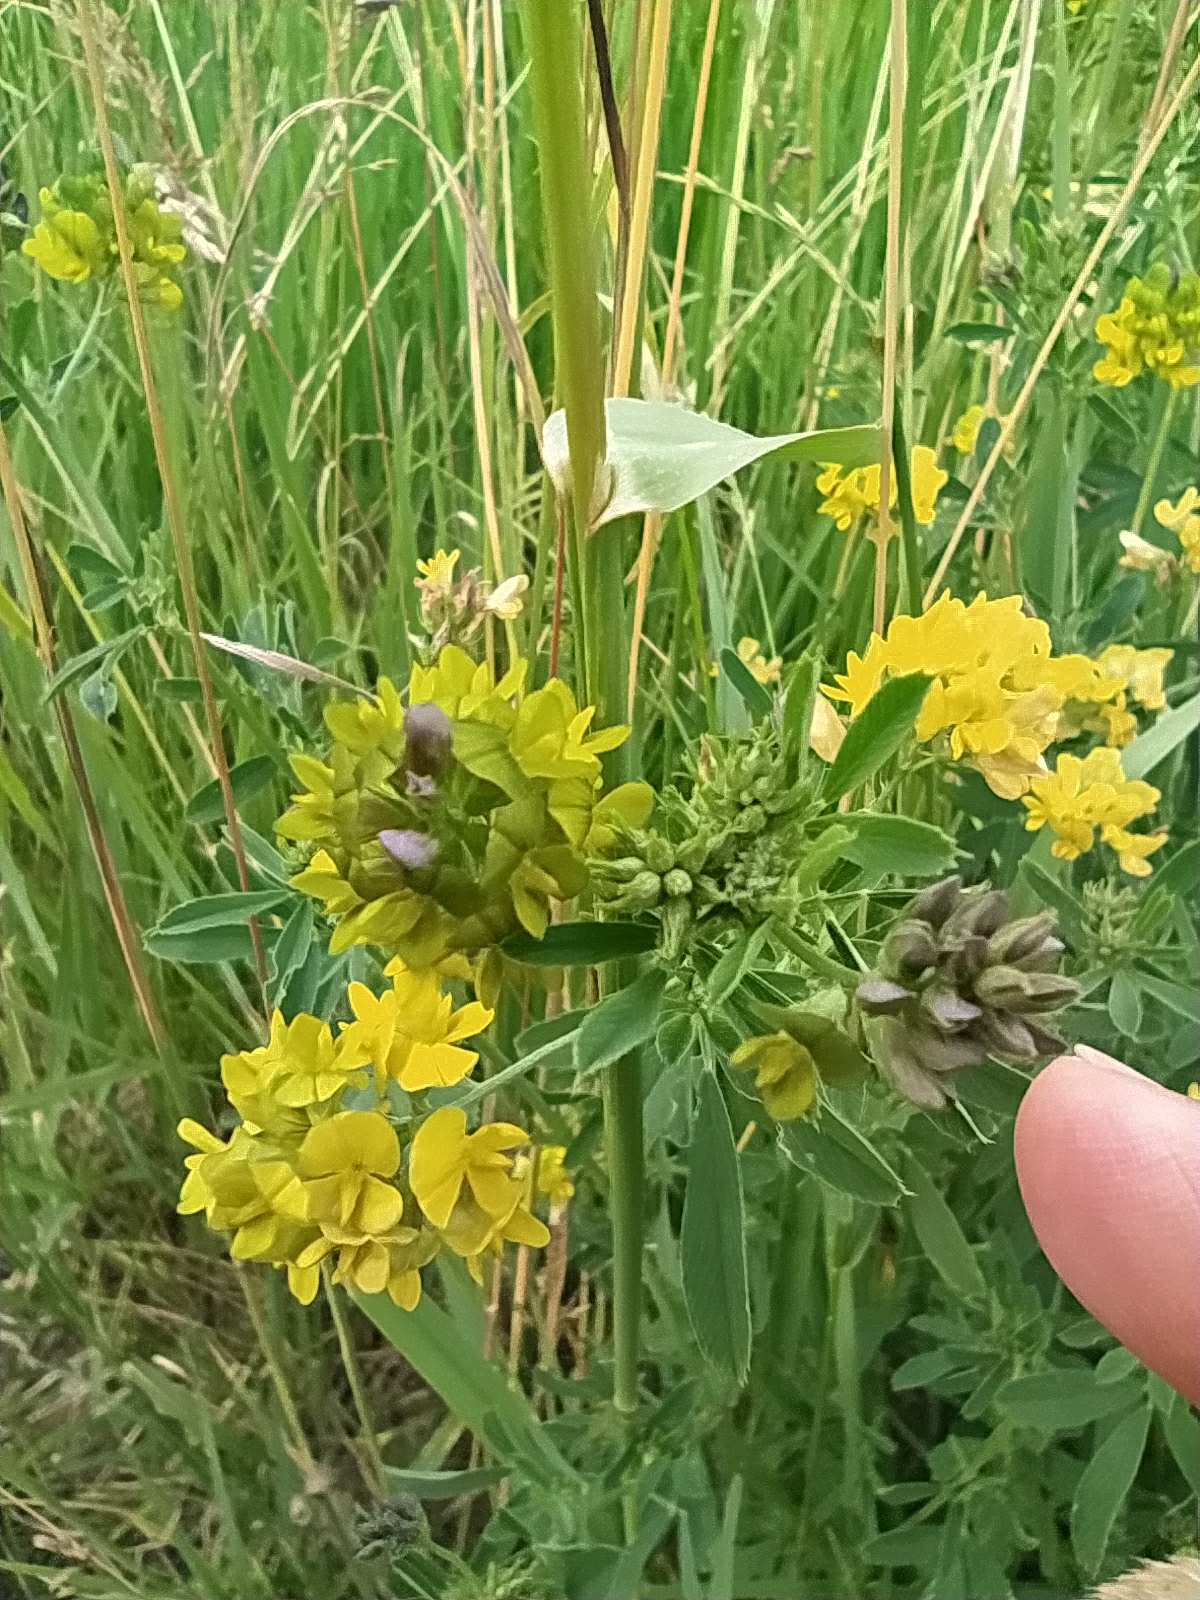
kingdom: Plantae
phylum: Tracheophyta
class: Magnoliopsida
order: Fabales
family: Fabaceae
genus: Medicago
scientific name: Medicago varia
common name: Sand lucerne
